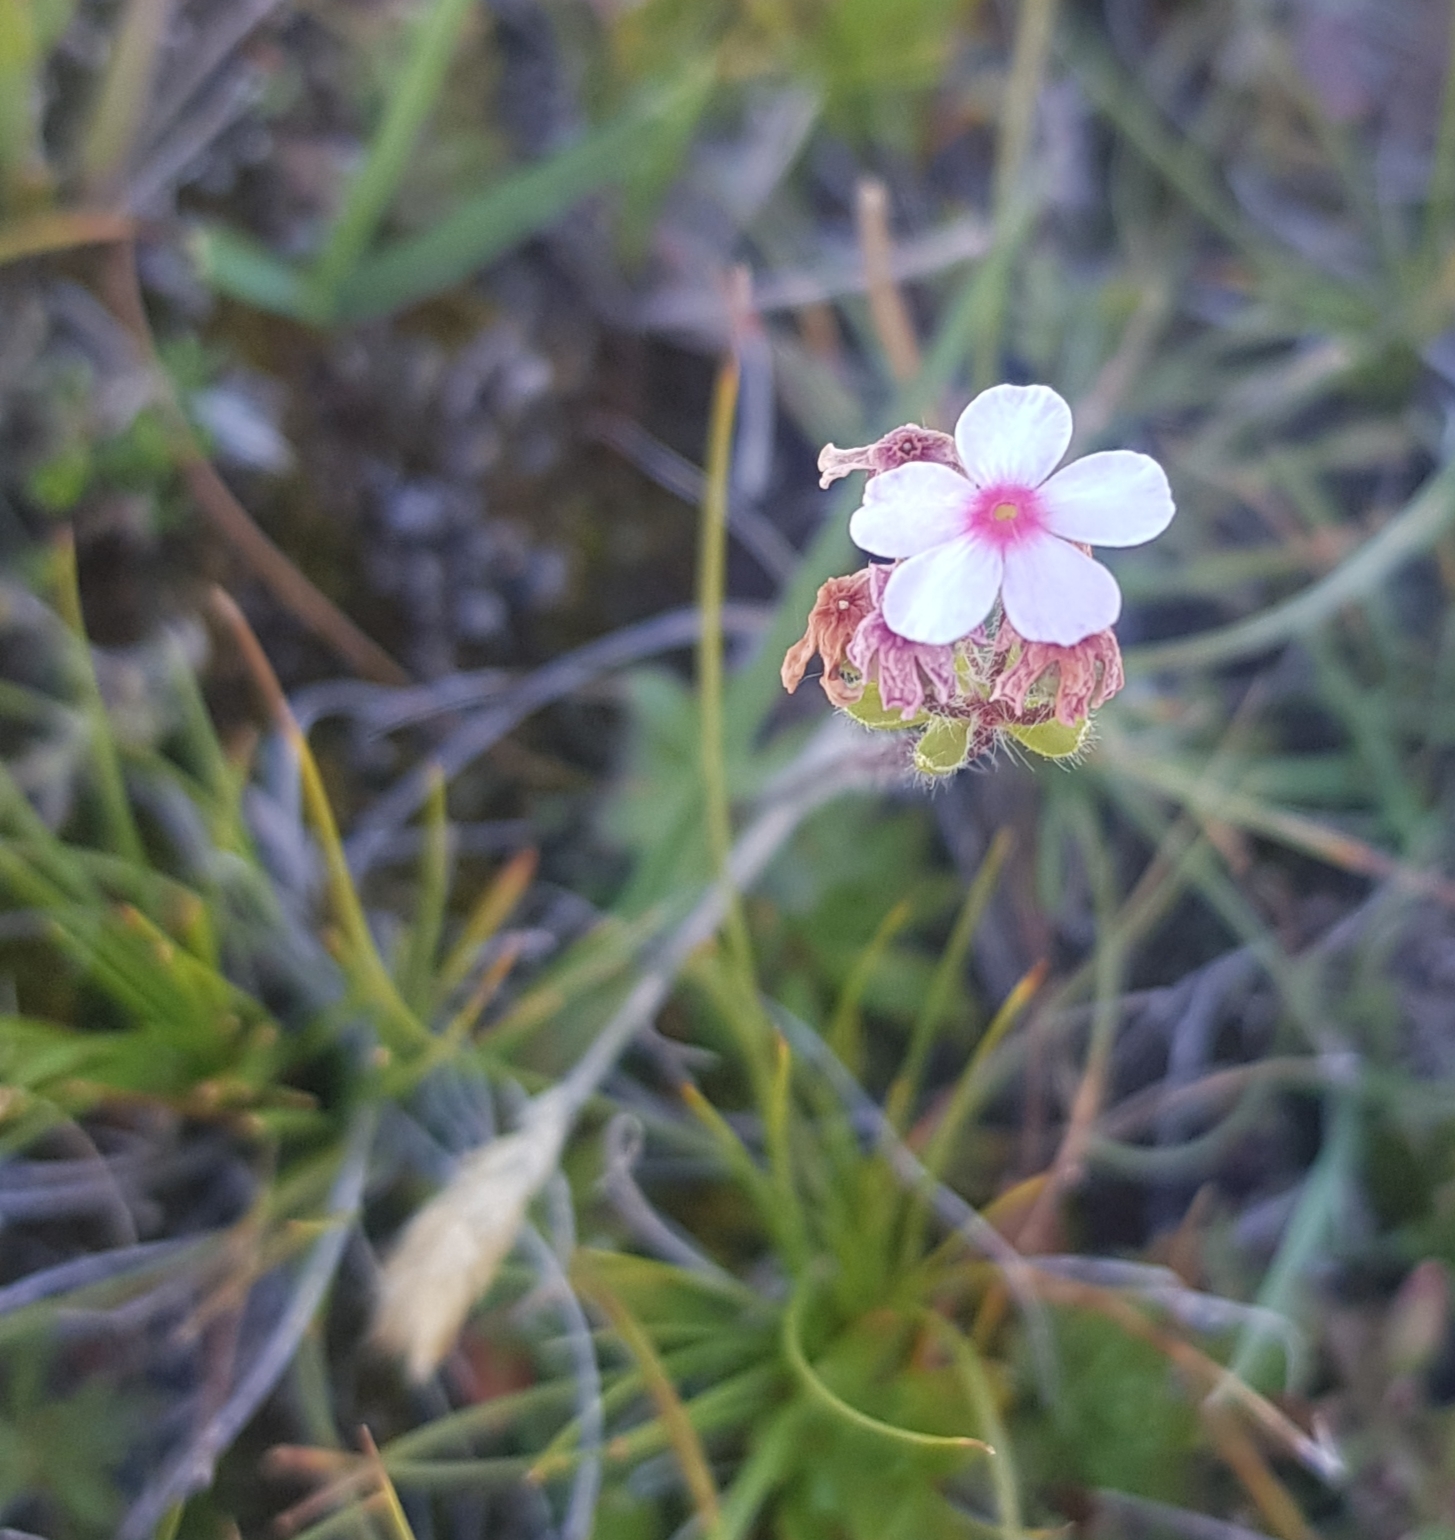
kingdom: Plantae
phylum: Tracheophyta
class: Magnoliopsida
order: Ericales
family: Primulaceae
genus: Androsace
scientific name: Androsace filiformis
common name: Filiform rock jasmine
